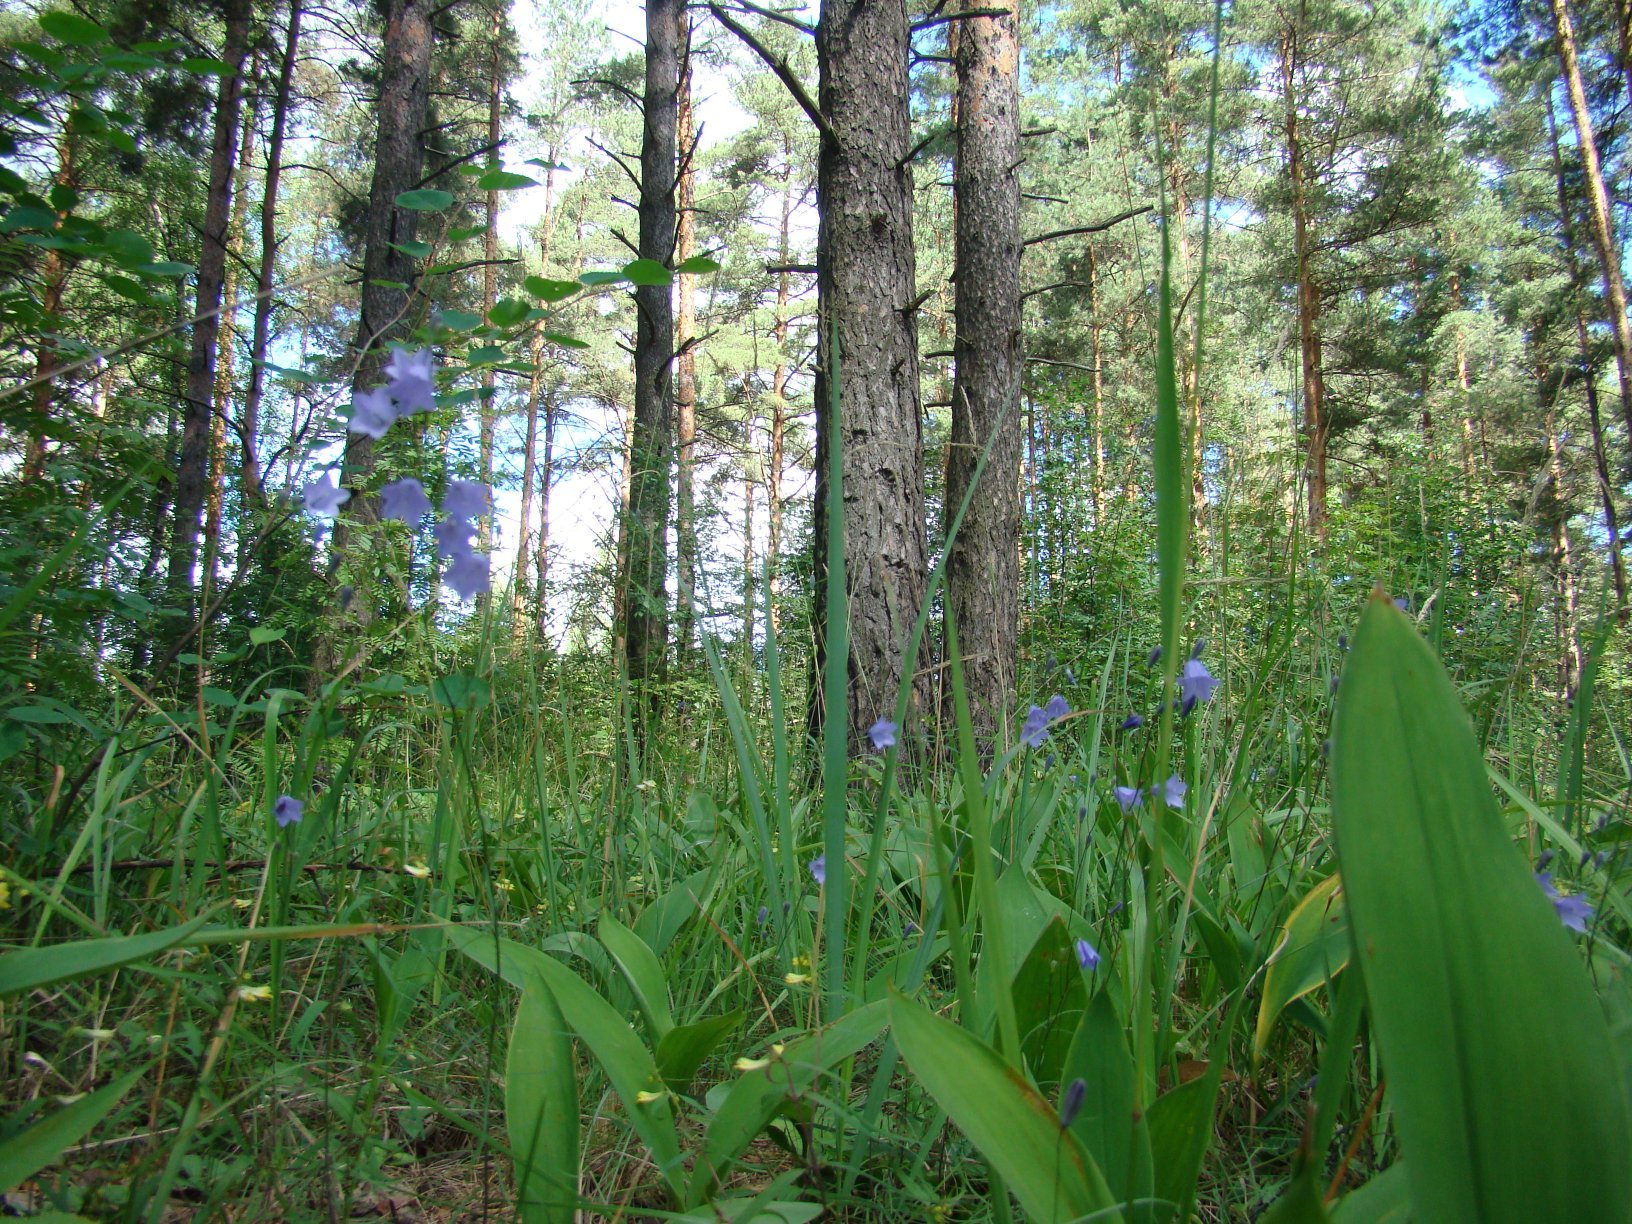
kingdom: Plantae
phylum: Tracheophyta
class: Magnoliopsida
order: Asterales
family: Campanulaceae
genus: Campanula
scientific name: Campanula rotundifolia
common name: Harebell
